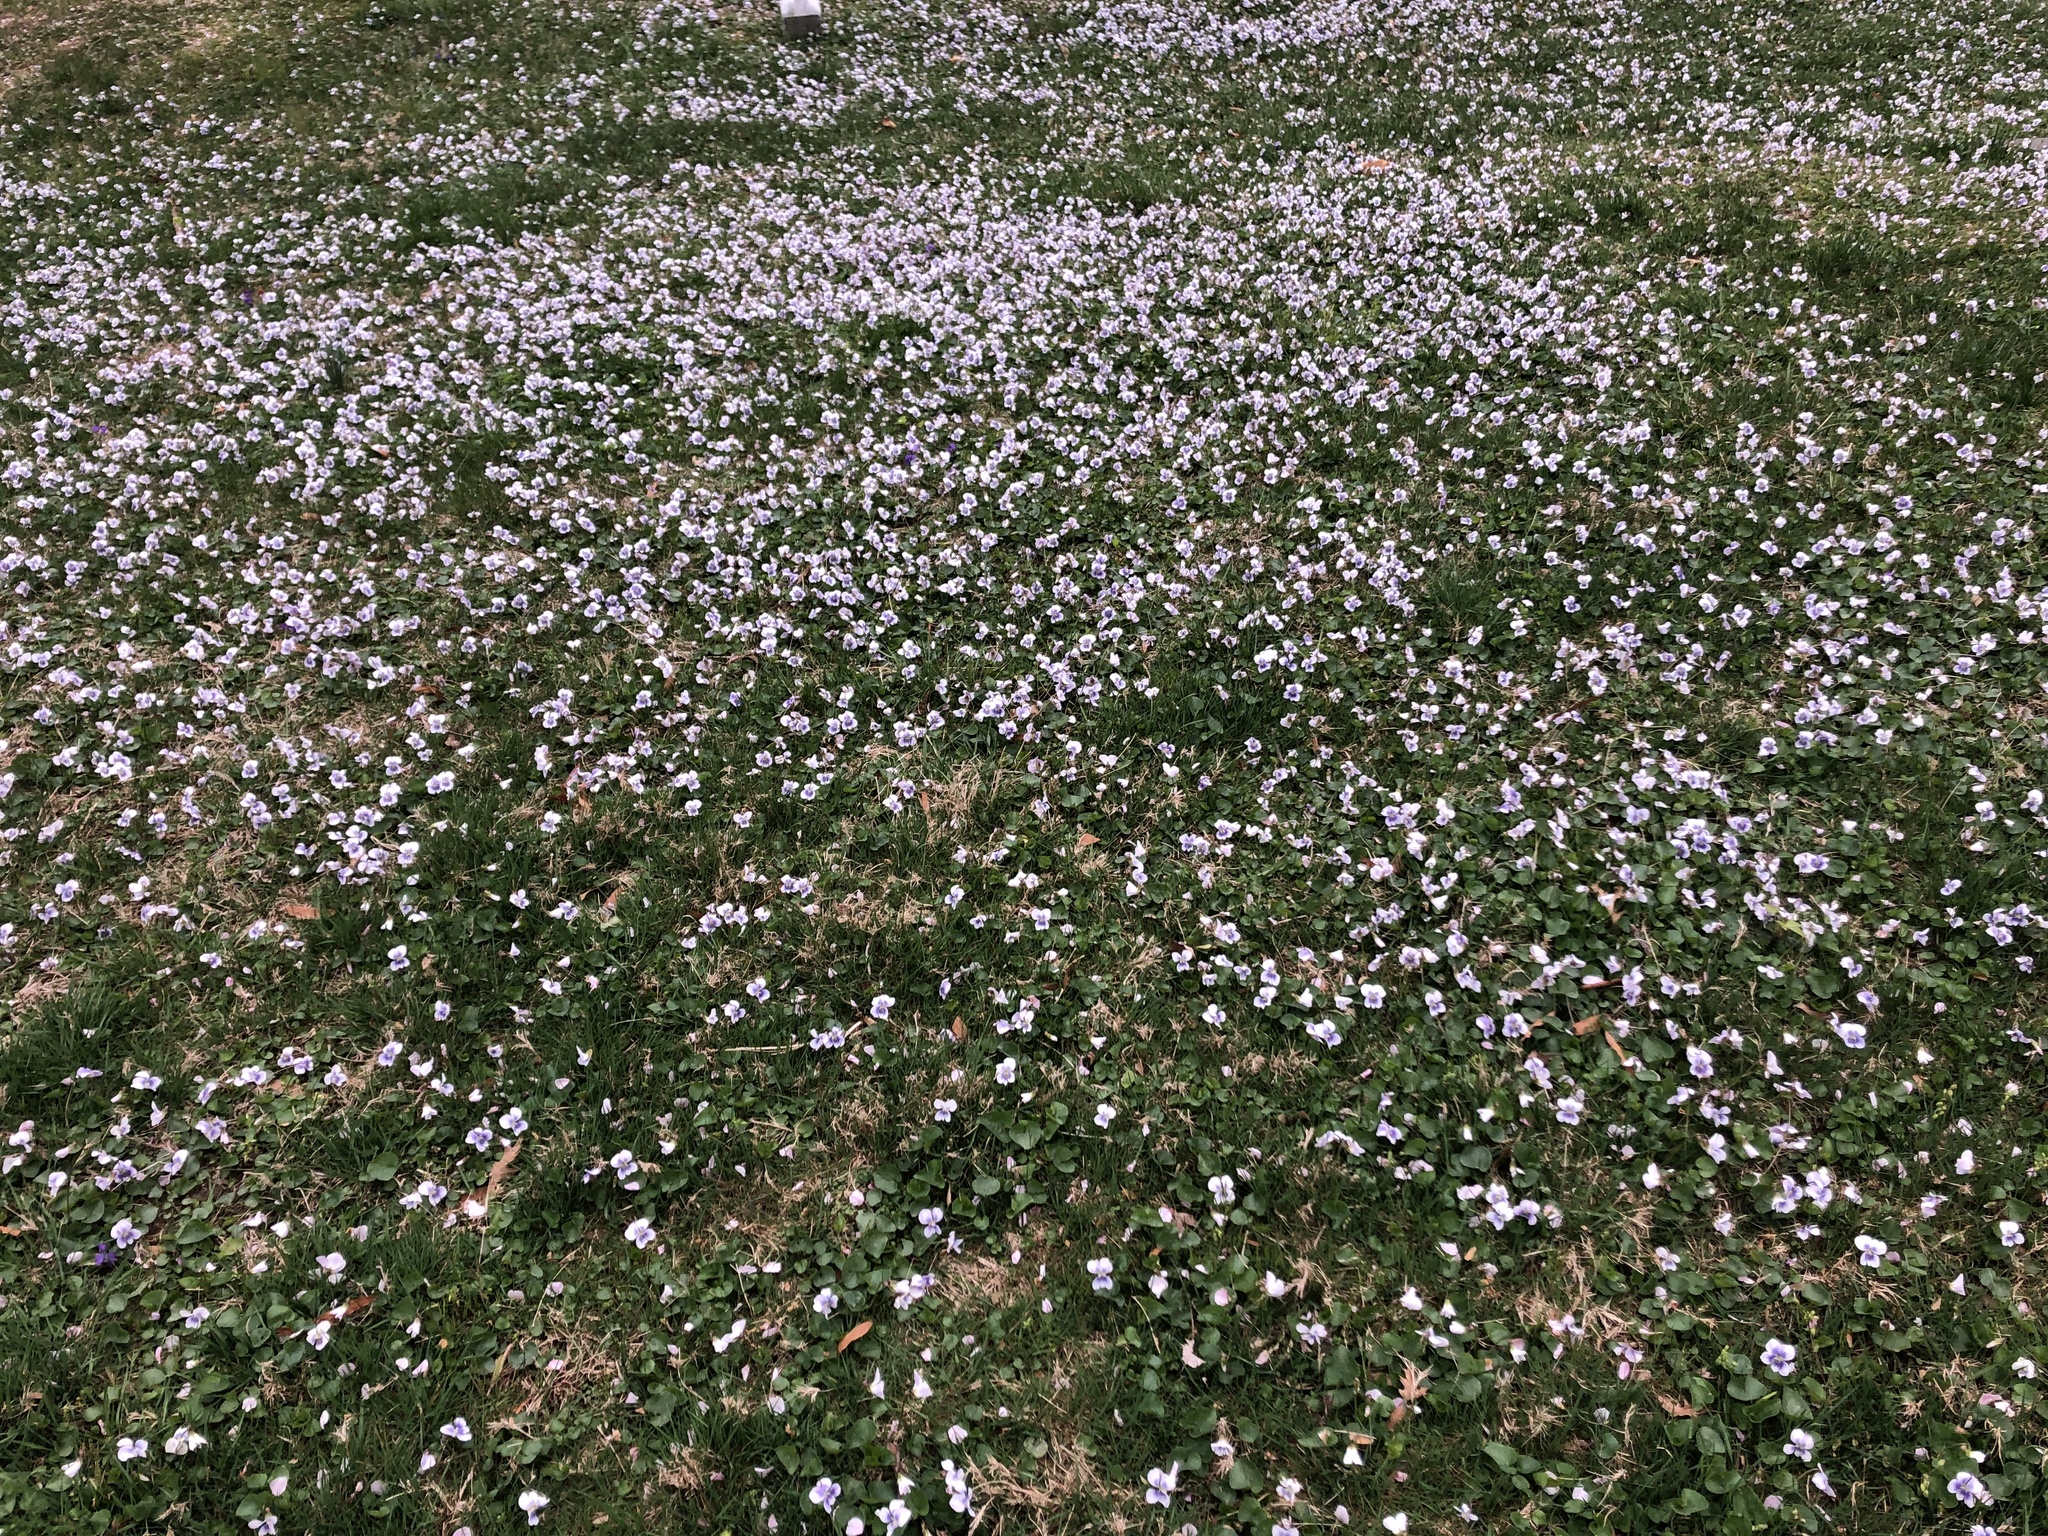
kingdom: Plantae
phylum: Tracheophyta
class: Magnoliopsida
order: Malpighiales
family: Violaceae
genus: Viola
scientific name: Viola sororia
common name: Dooryard violet
